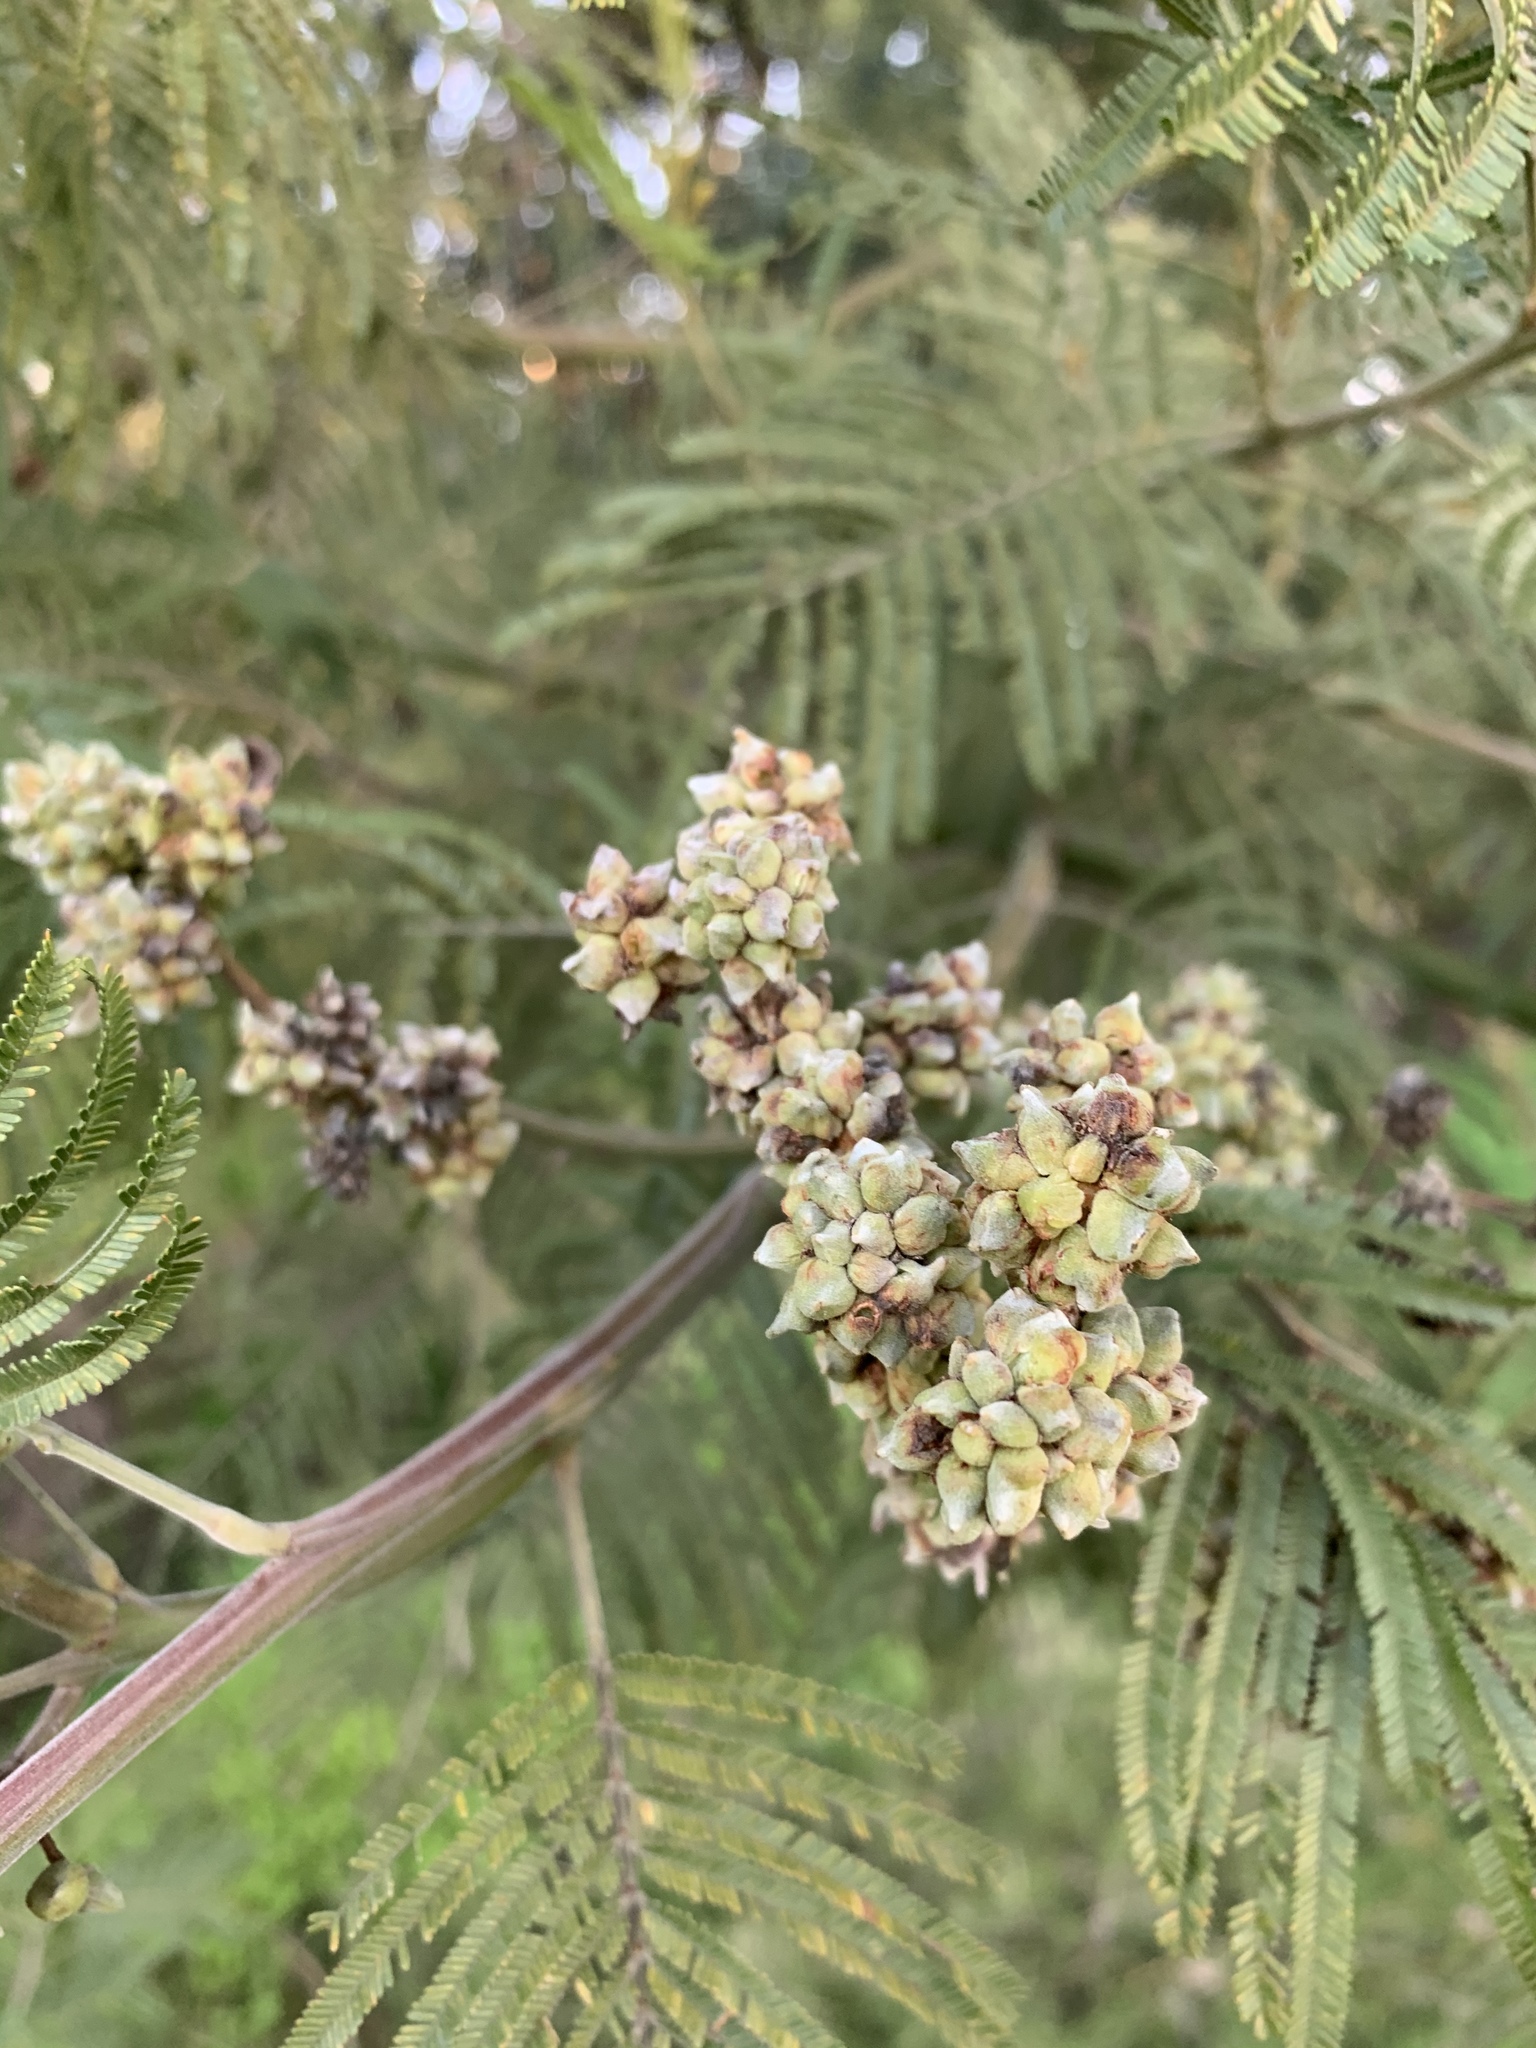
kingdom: Animalia
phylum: Arthropoda
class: Insecta
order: Diptera
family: Cecidomyiidae
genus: Dasineura
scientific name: Dasineura rubiformis
